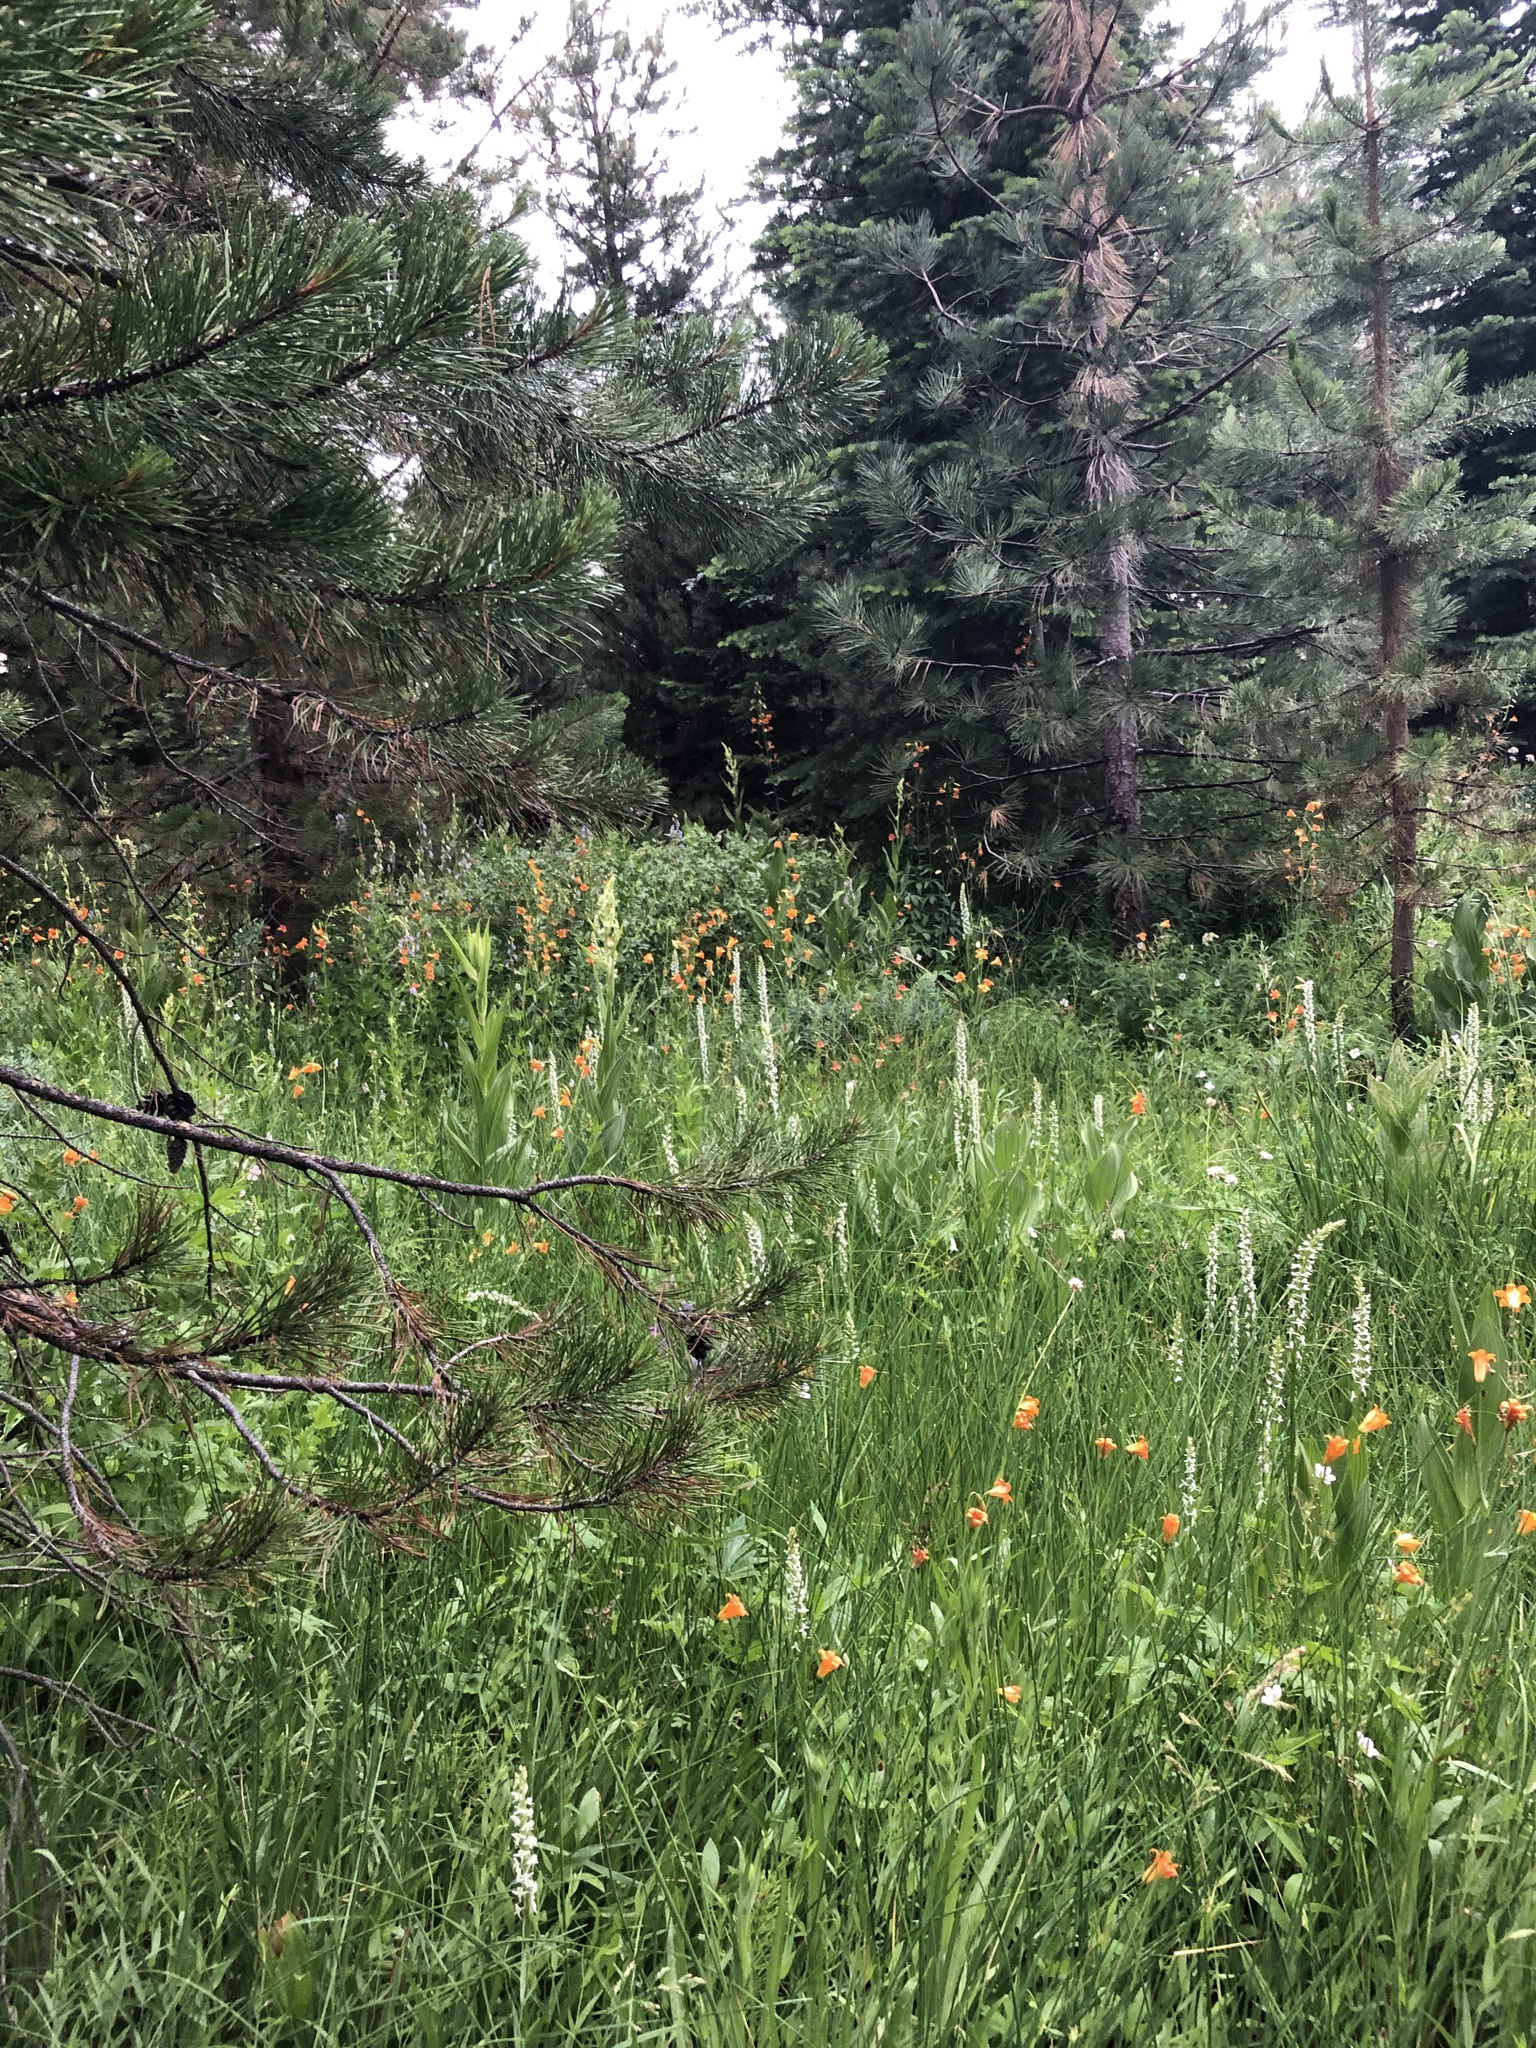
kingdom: Plantae
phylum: Tracheophyta
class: Liliopsida
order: Liliales
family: Liliaceae
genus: Lilium
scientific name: Lilium parvum
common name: Alpine lily
